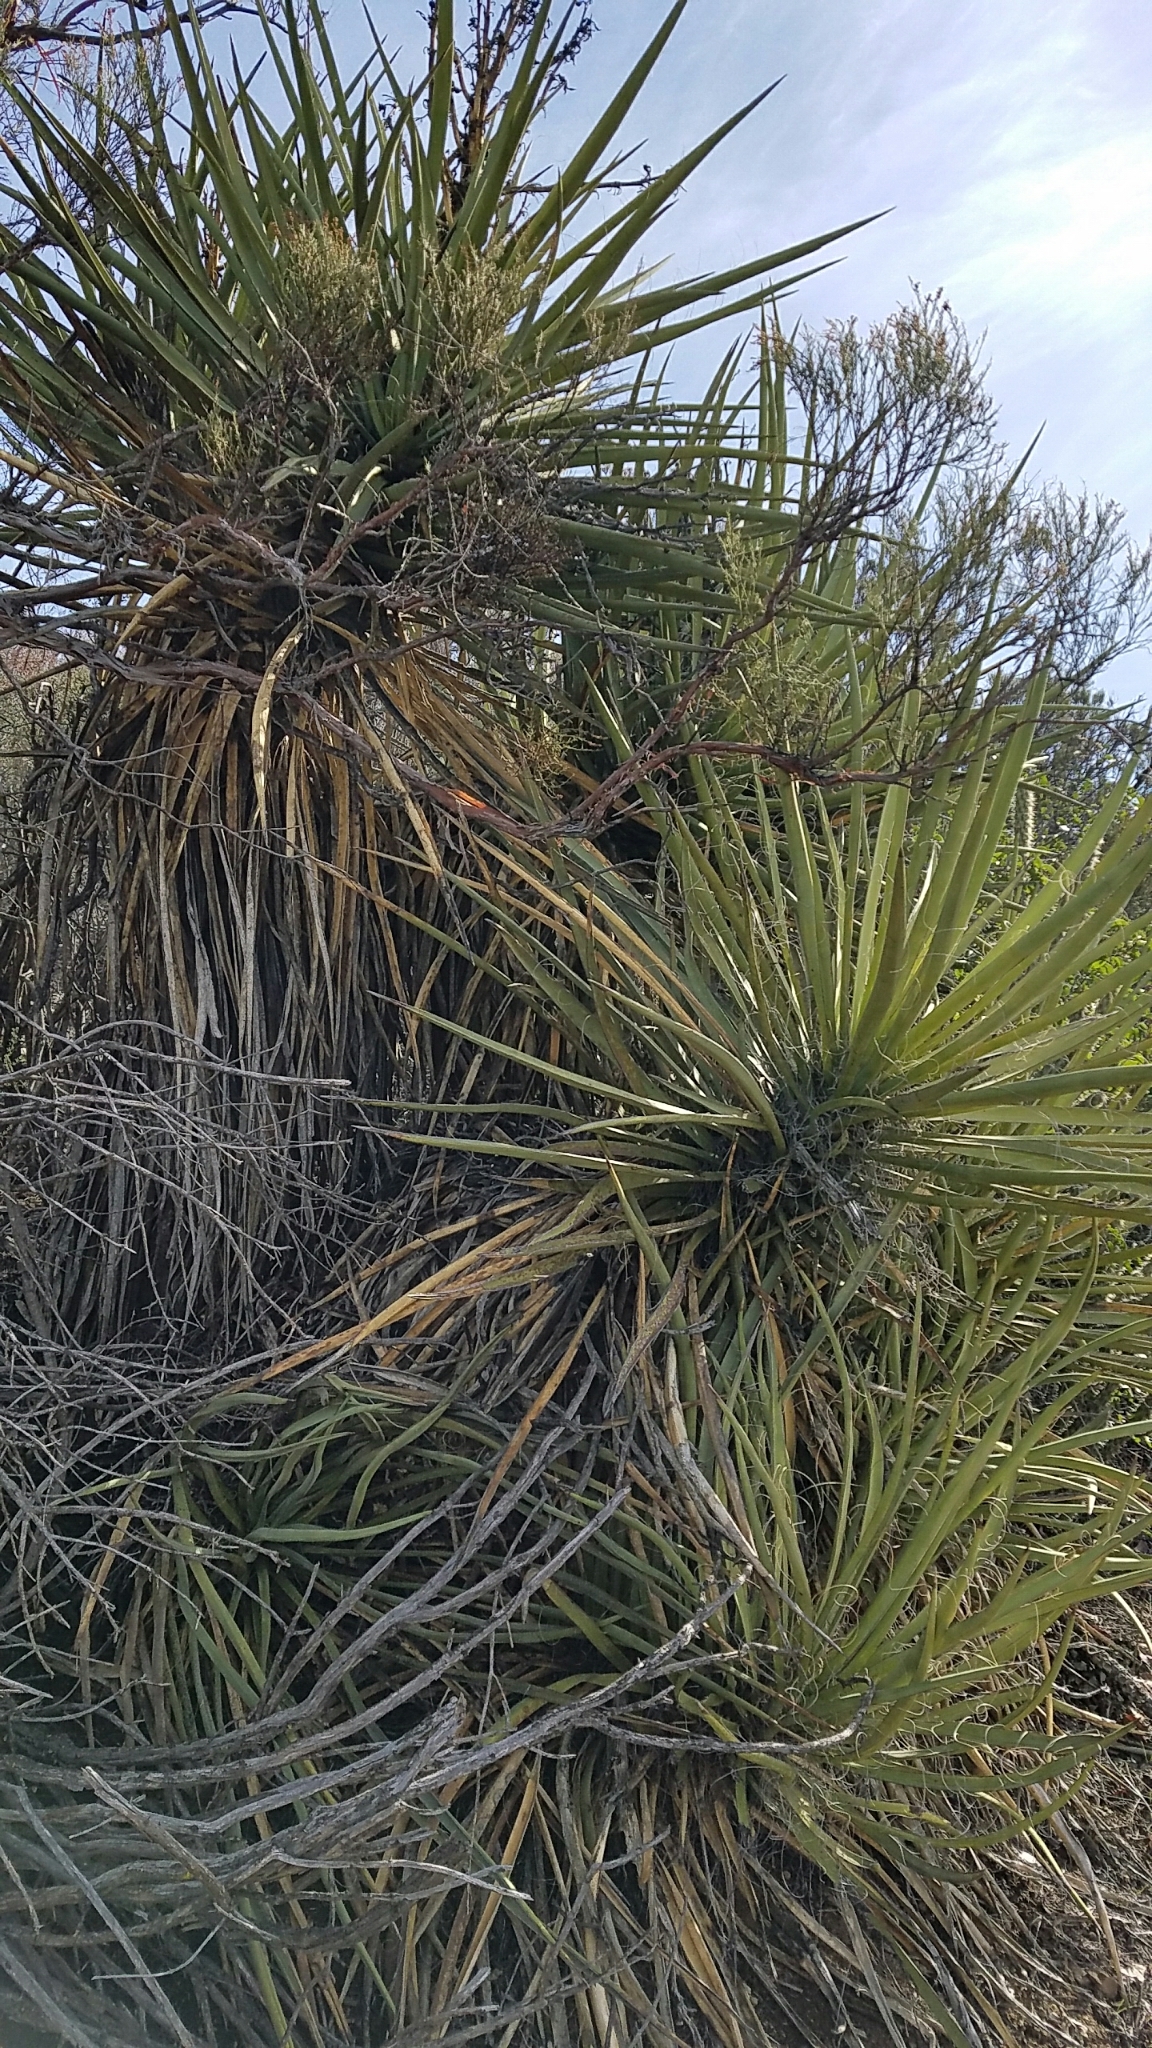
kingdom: Plantae
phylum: Tracheophyta
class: Liliopsida
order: Asparagales
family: Asparagaceae
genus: Yucca
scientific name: Yucca schidigera
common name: Mojave yucca
